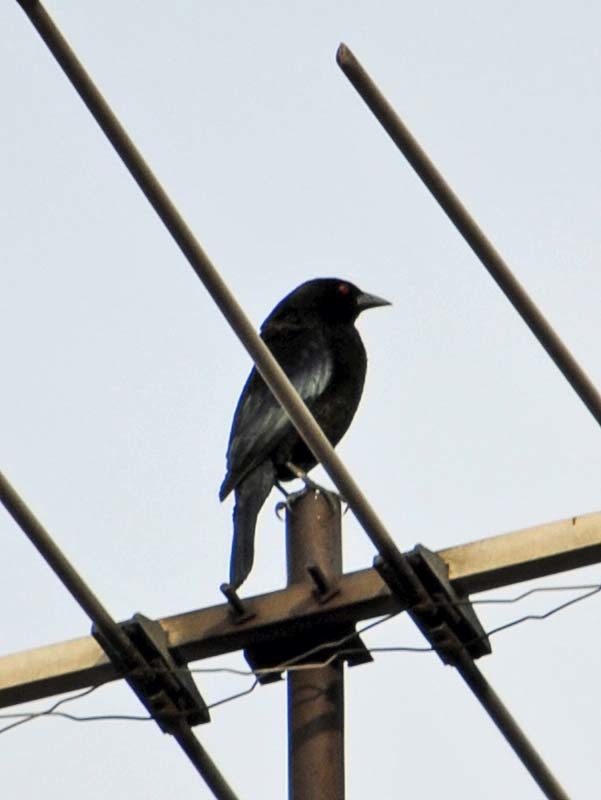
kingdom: Animalia
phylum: Chordata
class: Aves
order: Passeriformes
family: Icteridae
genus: Molothrus
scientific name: Molothrus aeneus
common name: Bronzed cowbird
